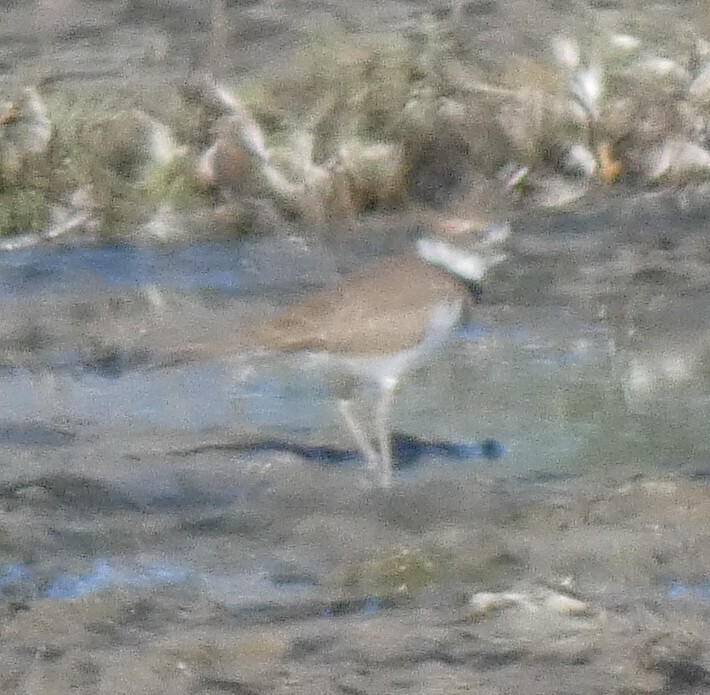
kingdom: Animalia
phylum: Chordata
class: Aves
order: Charadriiformes
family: Charadriidae
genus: Charadrius
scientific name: Charadrius vociferus
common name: Killdeer
